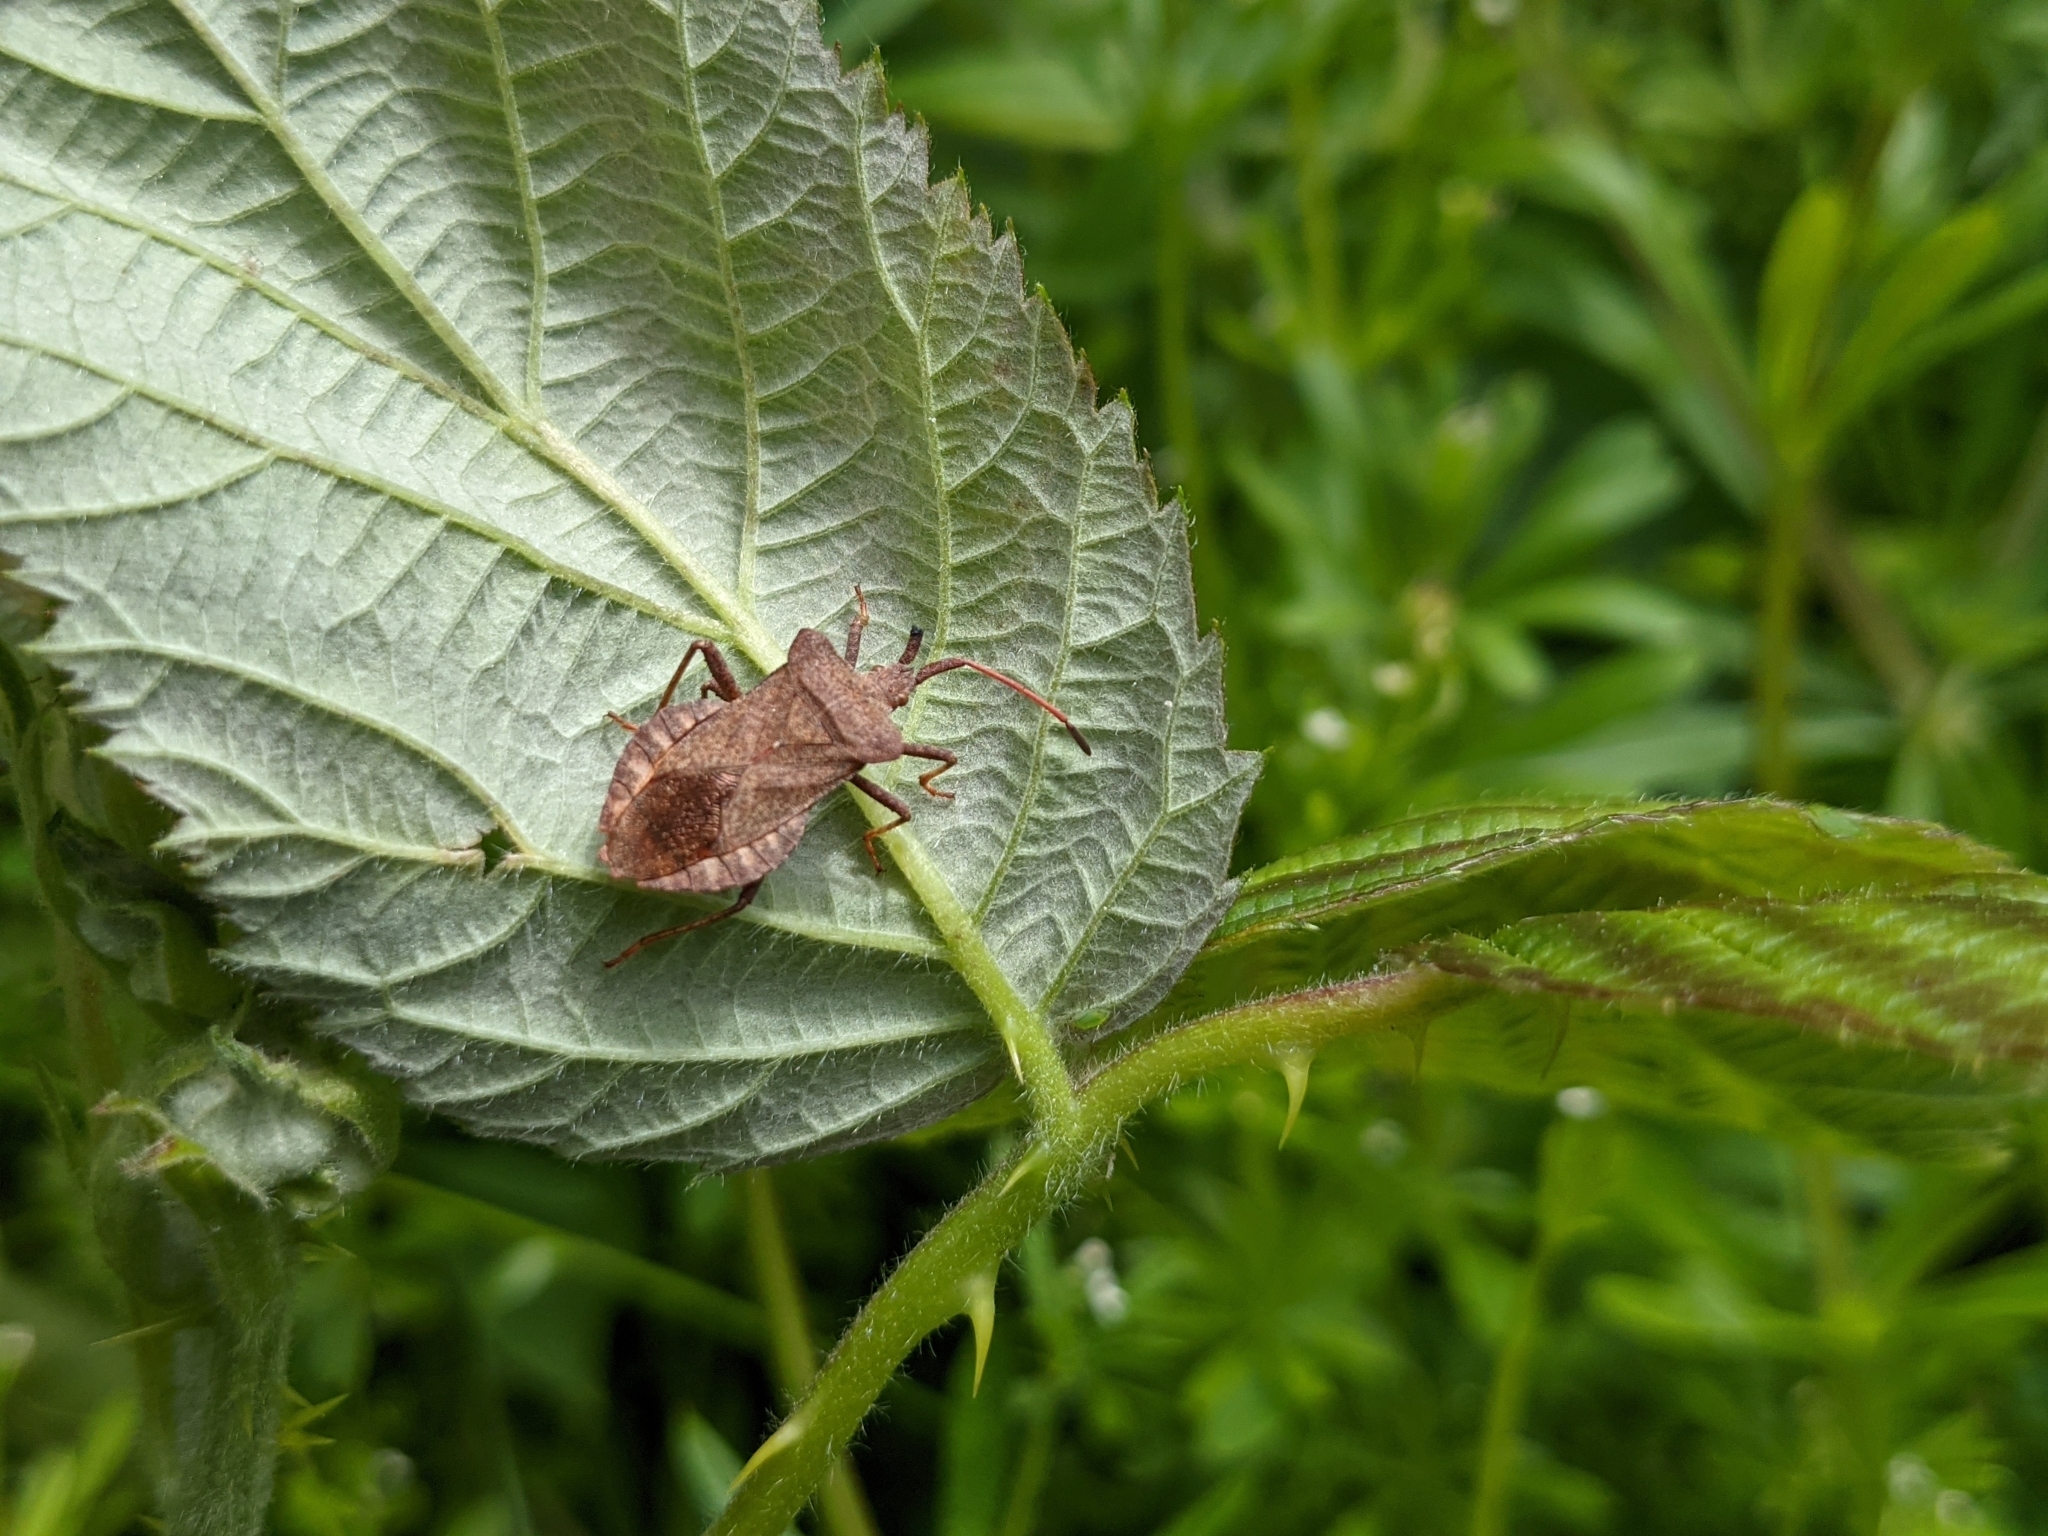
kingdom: Animalia
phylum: Arthropoda
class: Insecta
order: Hemiptera
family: Coreidae
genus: Coreus
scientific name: Coreus marginatus
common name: Dock bug
